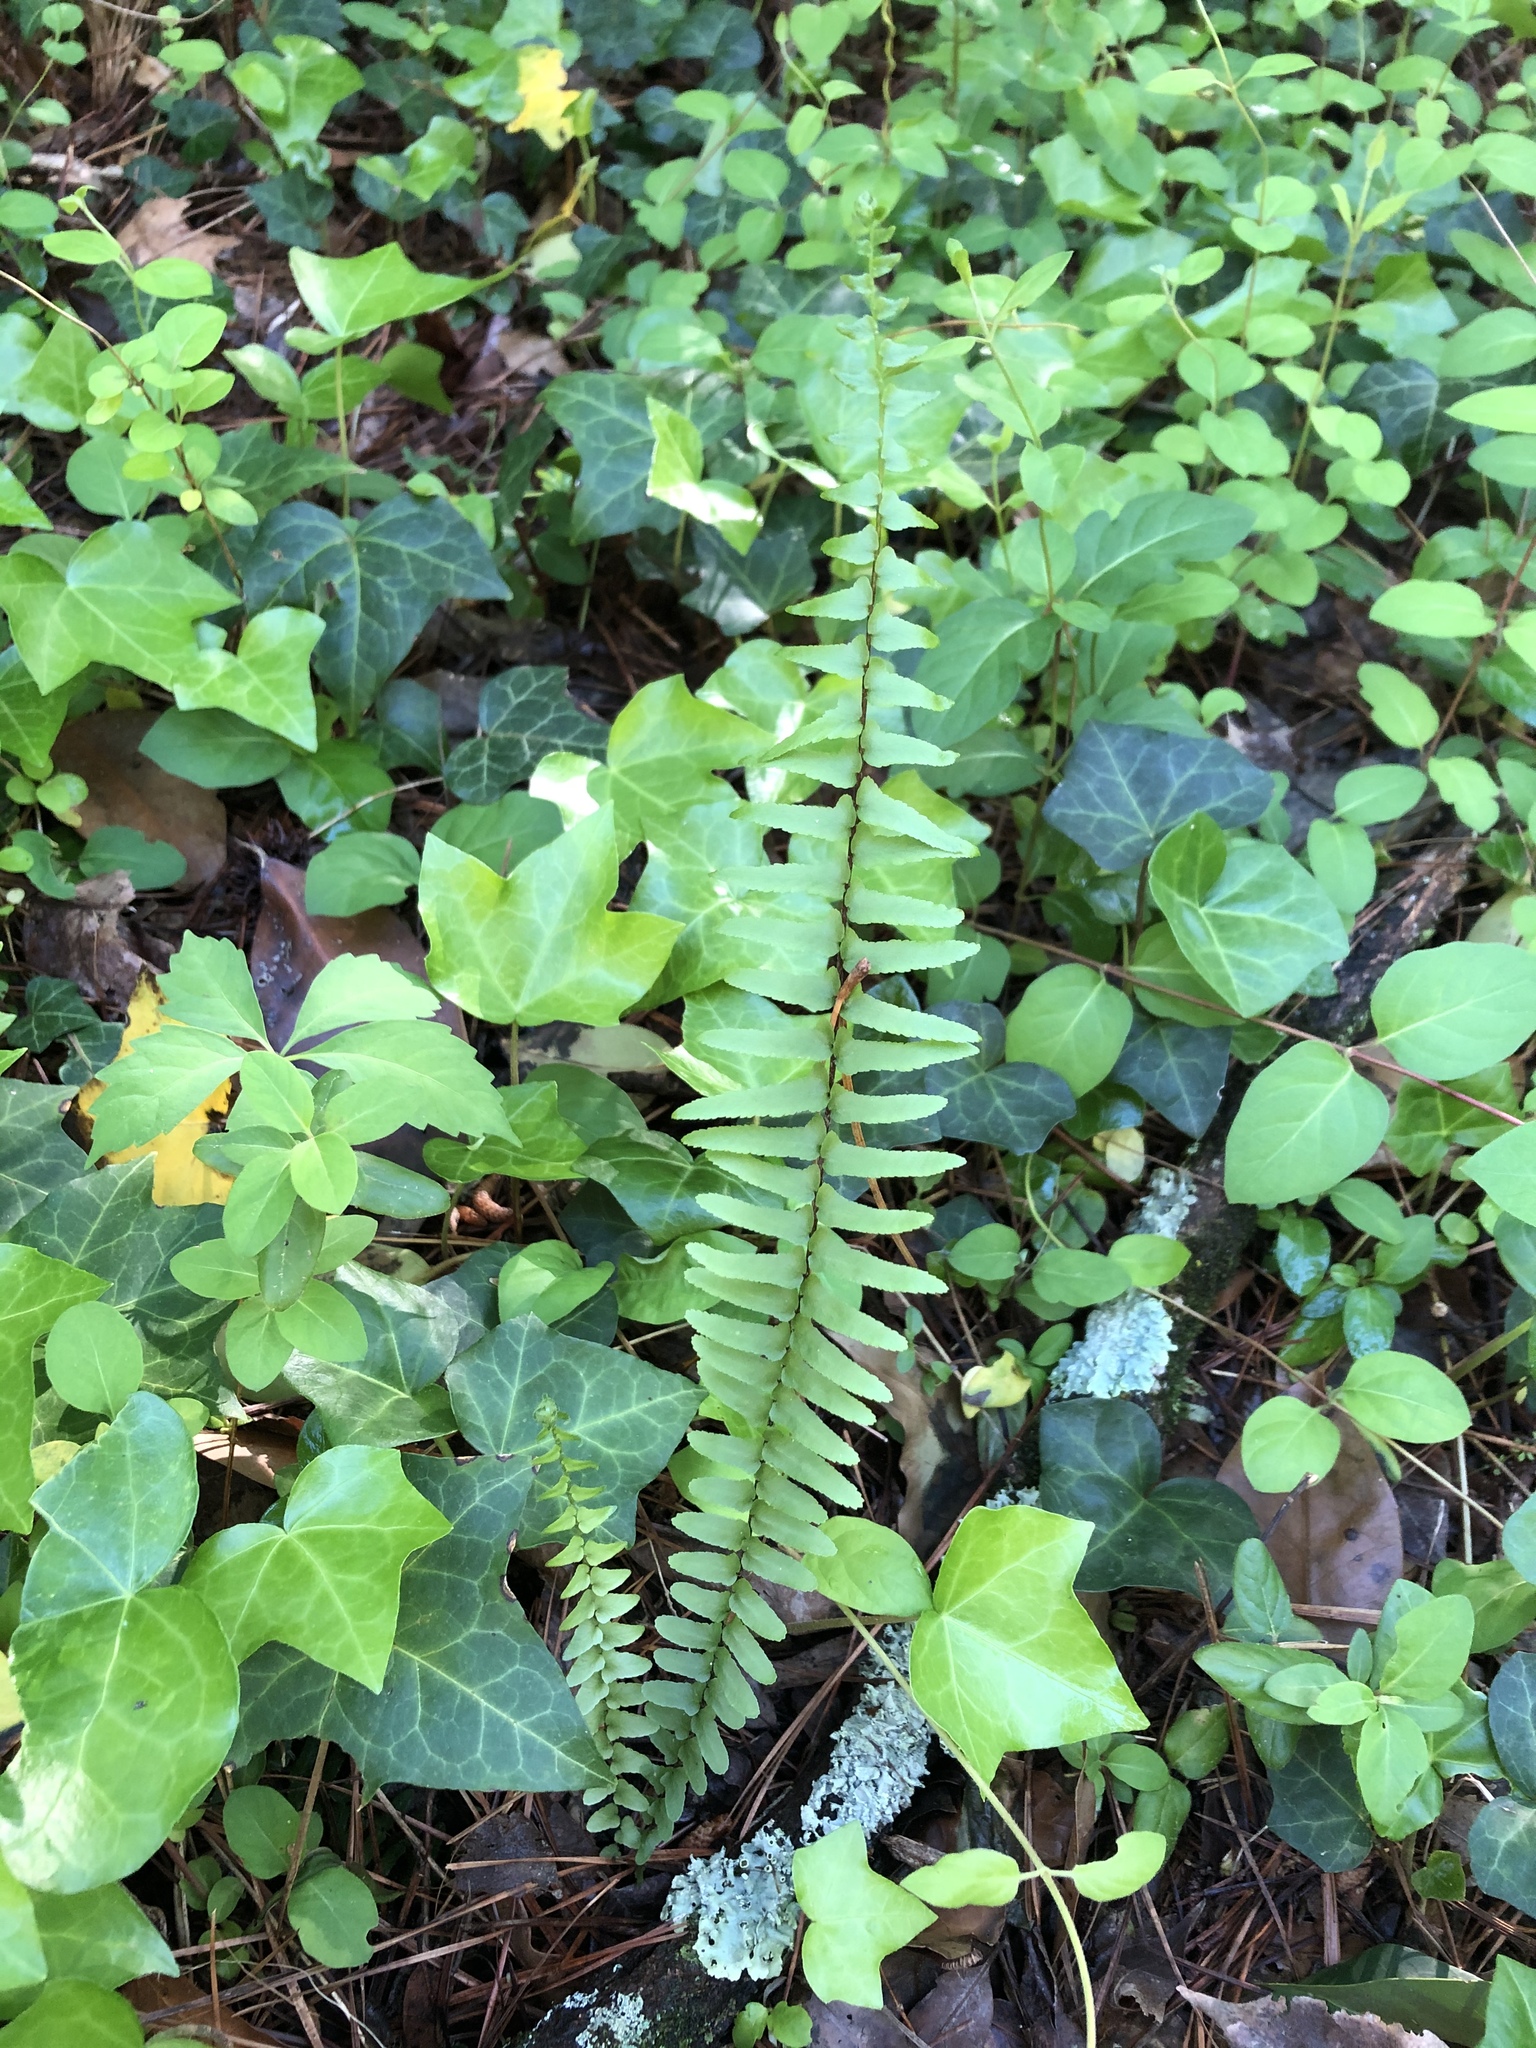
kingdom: Plantae
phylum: Tracheophyta
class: Polypodiopsida
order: Polypodiales
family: Aspleniaceae
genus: Asplenium
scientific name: Asplenium platyneuron
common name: Ebony spleenwort
